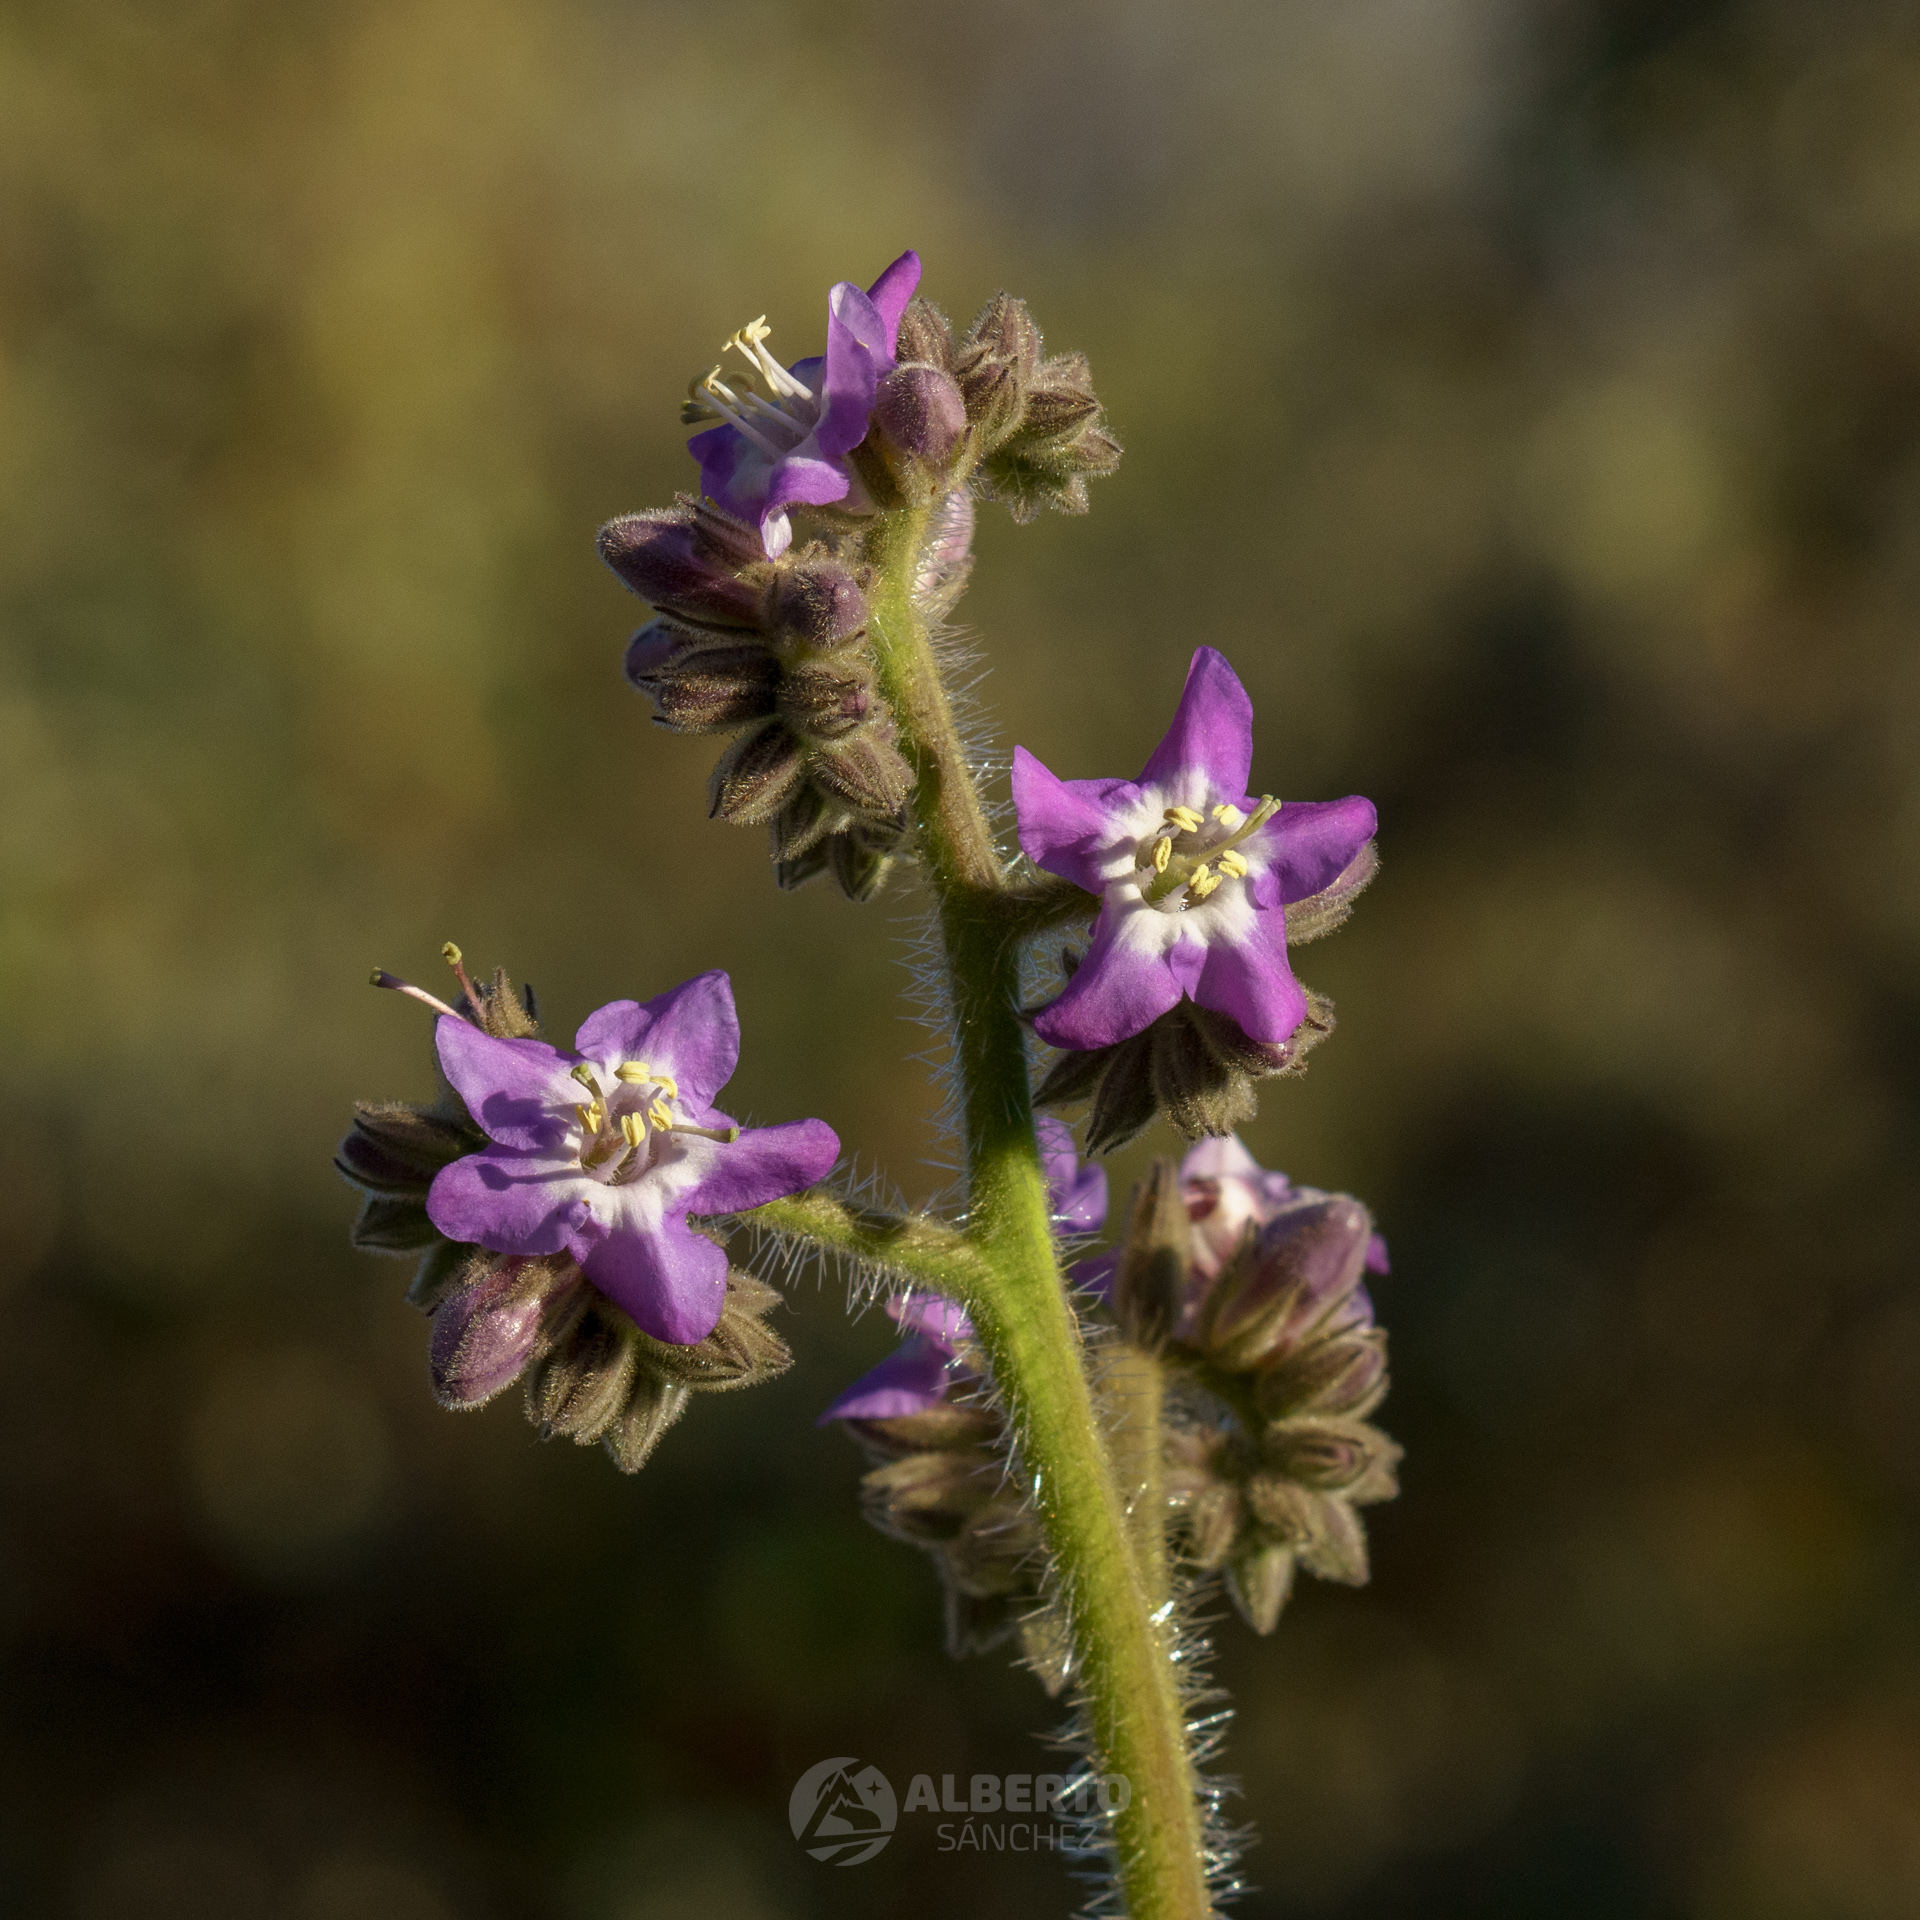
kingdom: Plantae
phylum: Tracheophyta
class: Magnoliopsida
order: Boraginales
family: Namaceae
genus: Wigandia
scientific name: Wigandia urens
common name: Caracus wigandia
